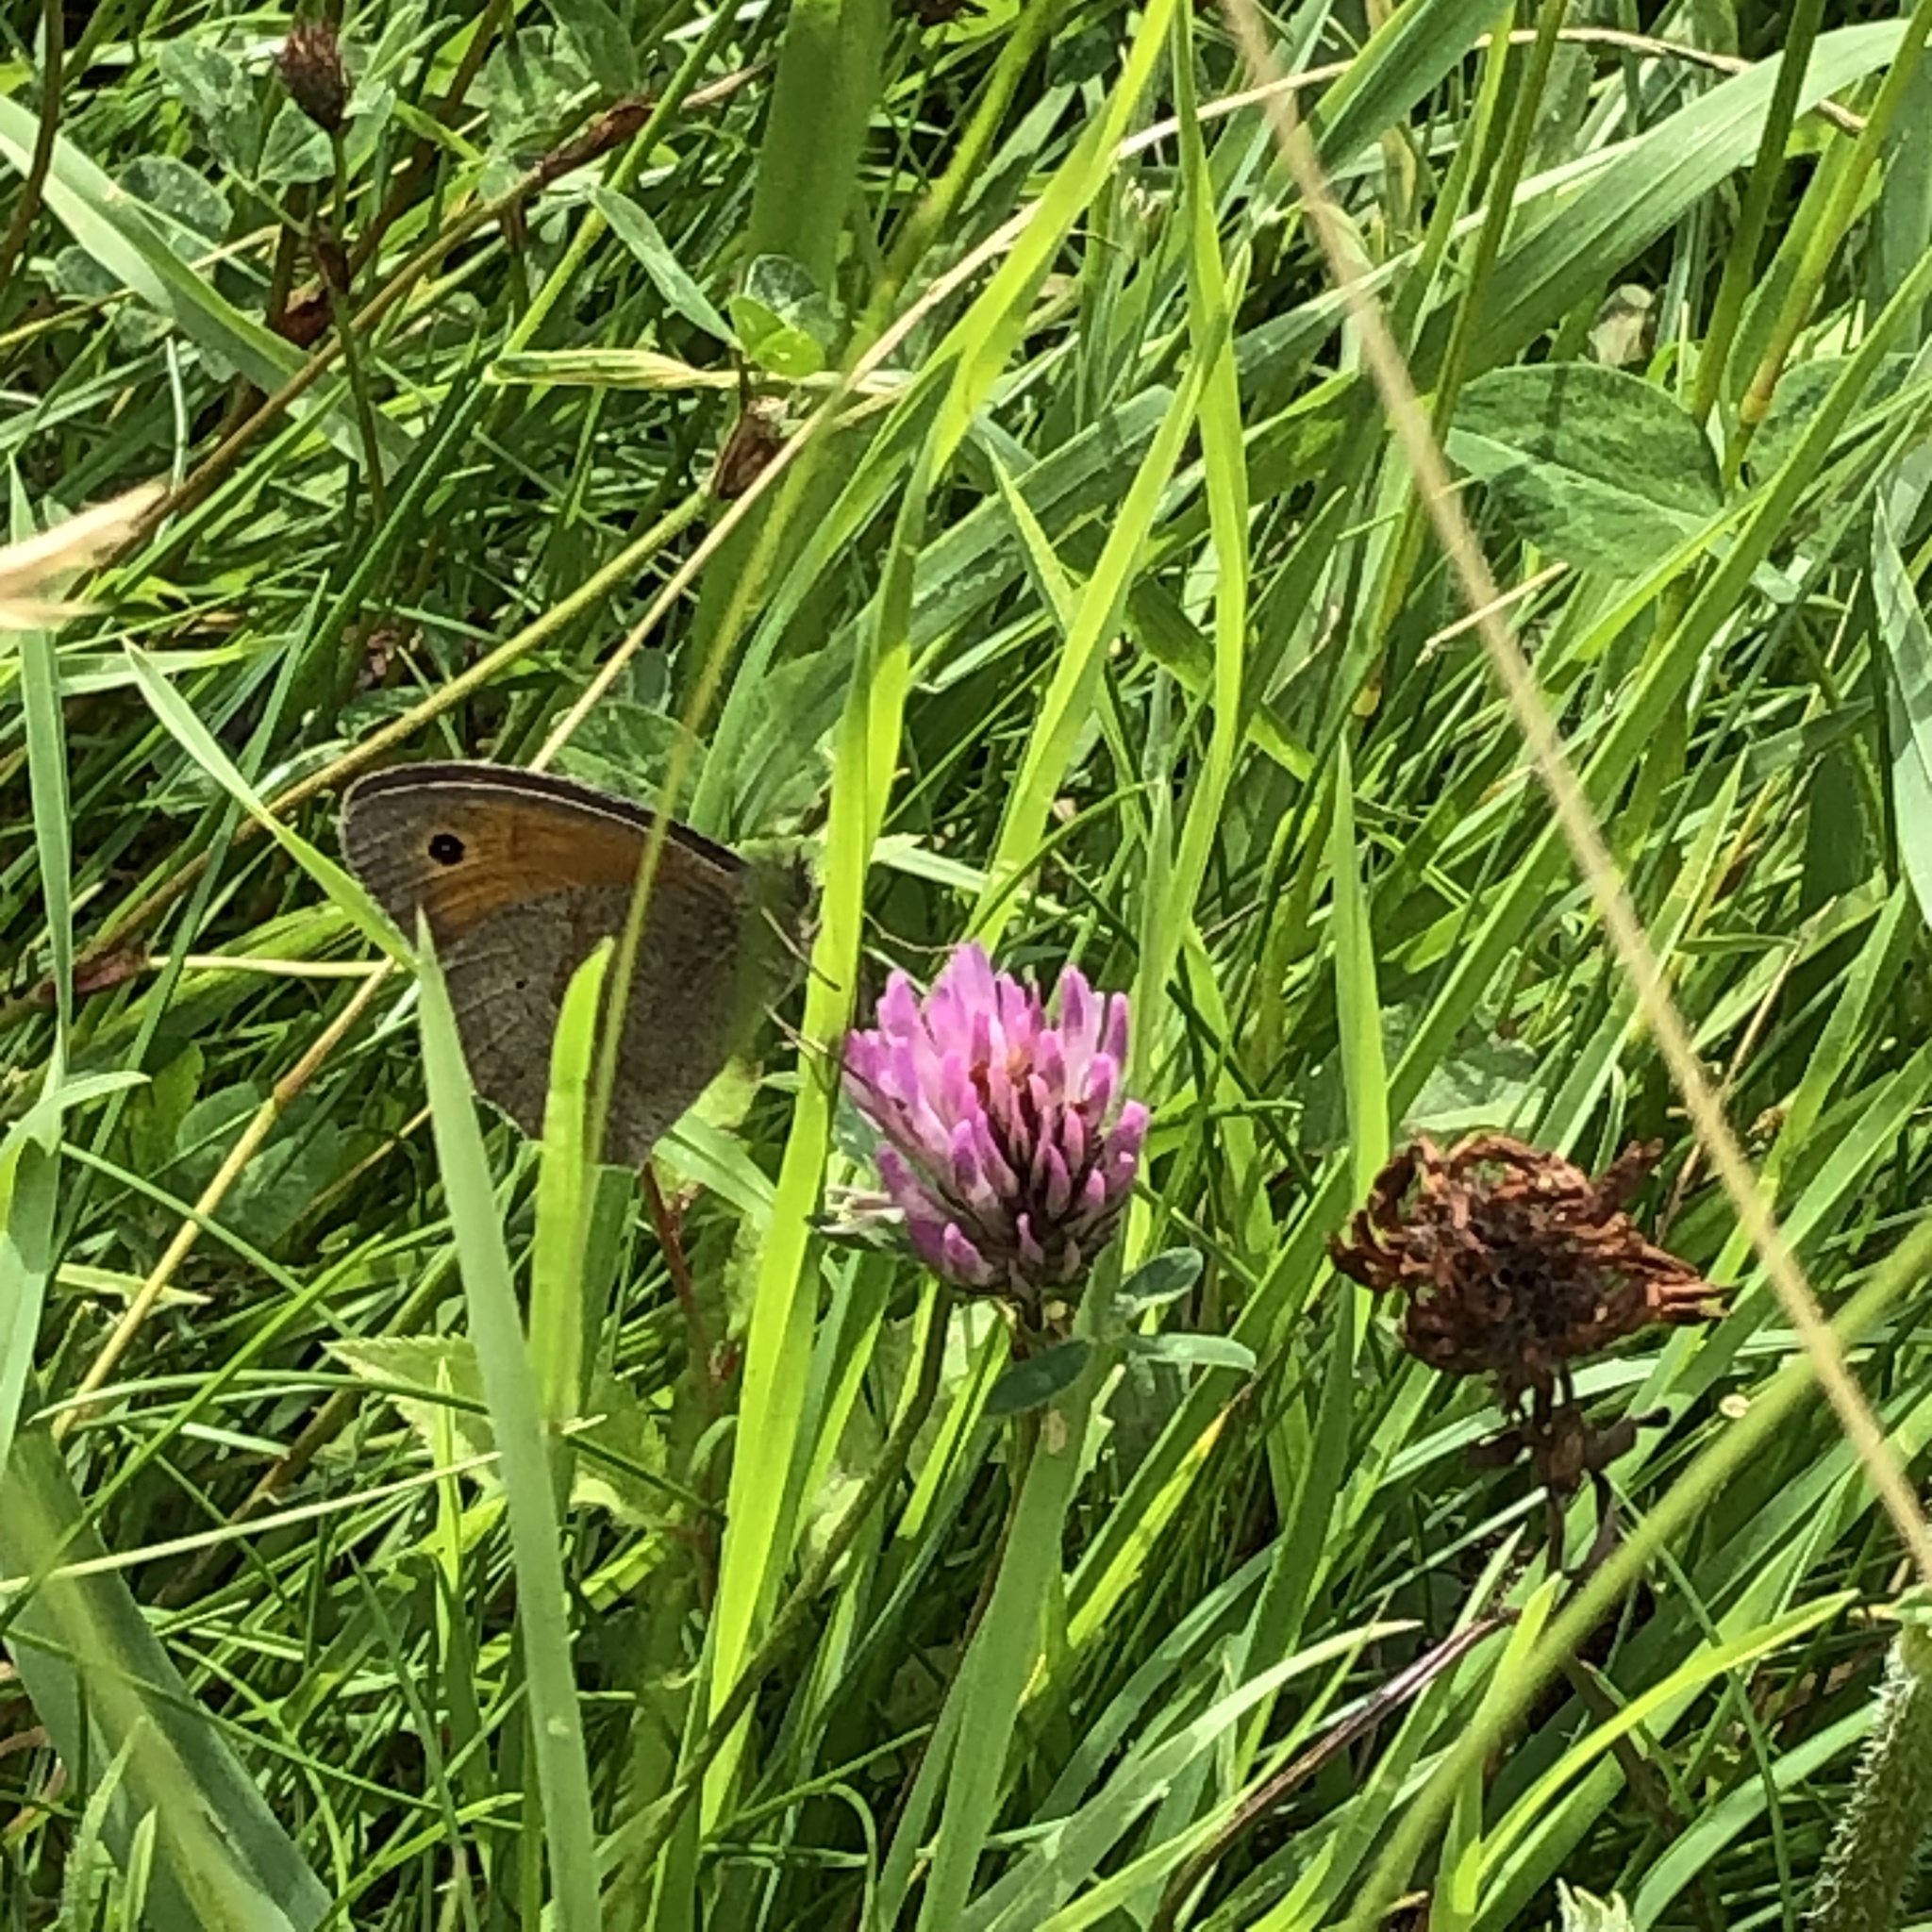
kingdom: Animalia
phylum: Arthropoda
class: Insecta
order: Lepidoptera
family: Nymphalidae
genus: Maniola
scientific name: Maniola jurtina
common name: Meadow brown
